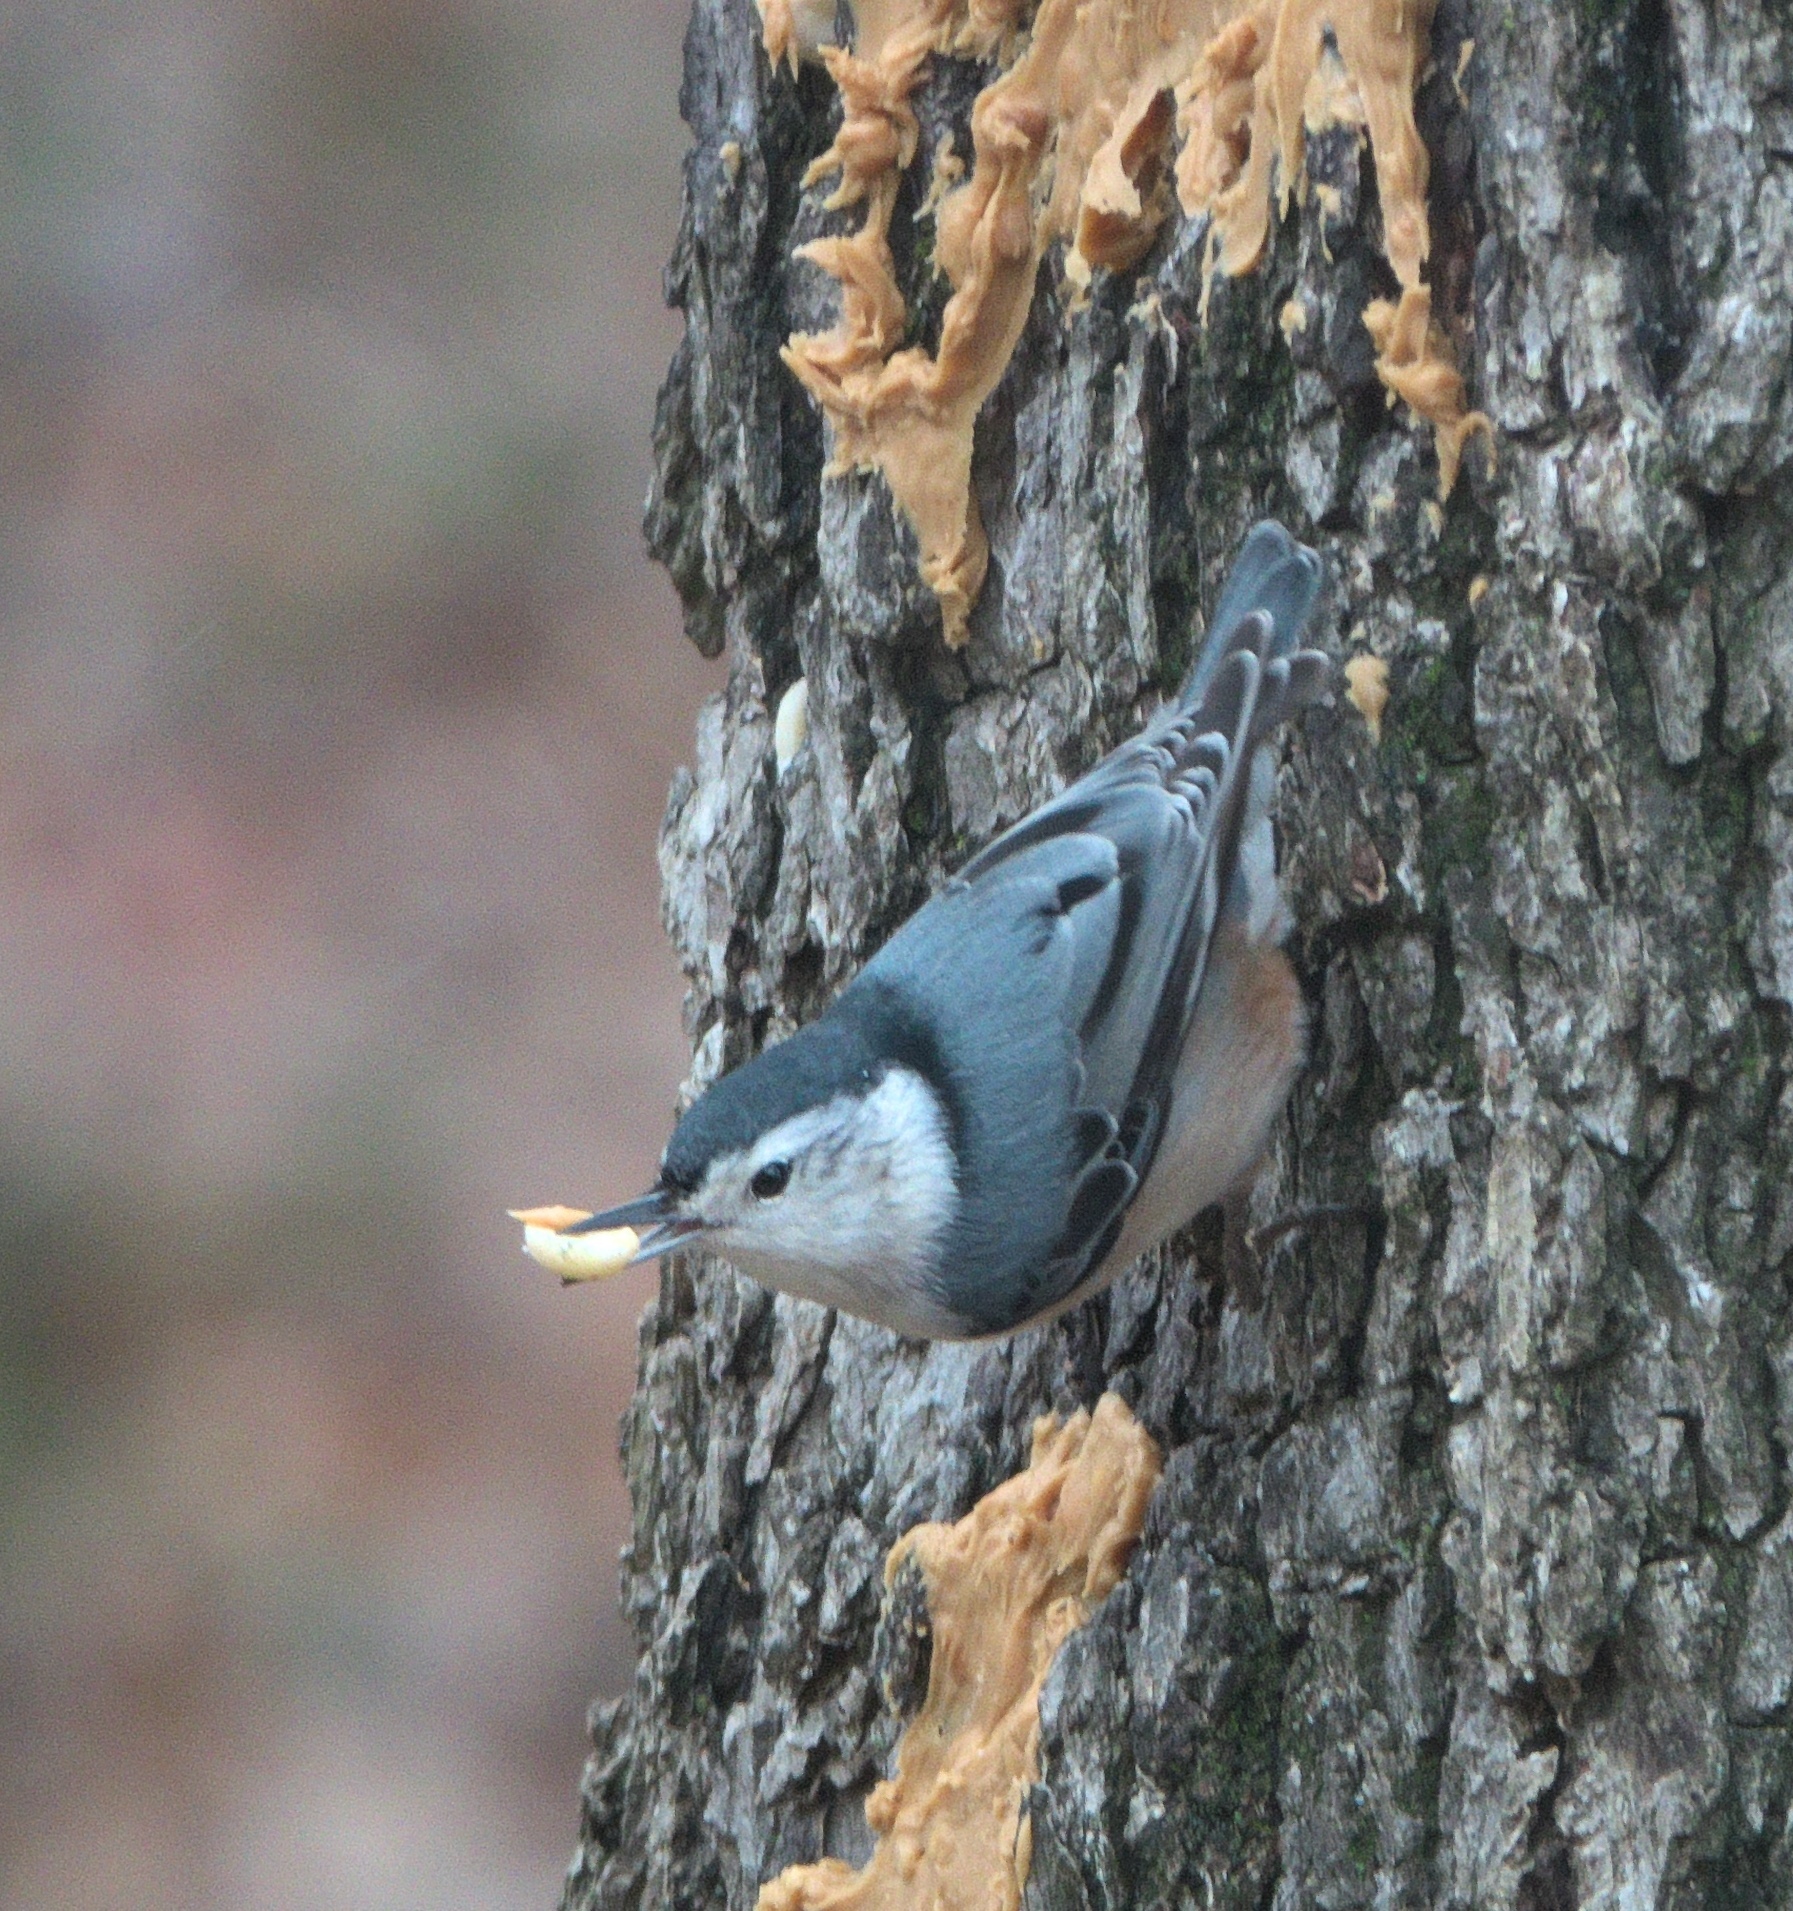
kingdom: Animalia
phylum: Chordata
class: Aves
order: Passeriformes
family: Sittidae
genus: Sitta
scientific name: Sitta carolinensis
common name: White-breasted nuthatch
